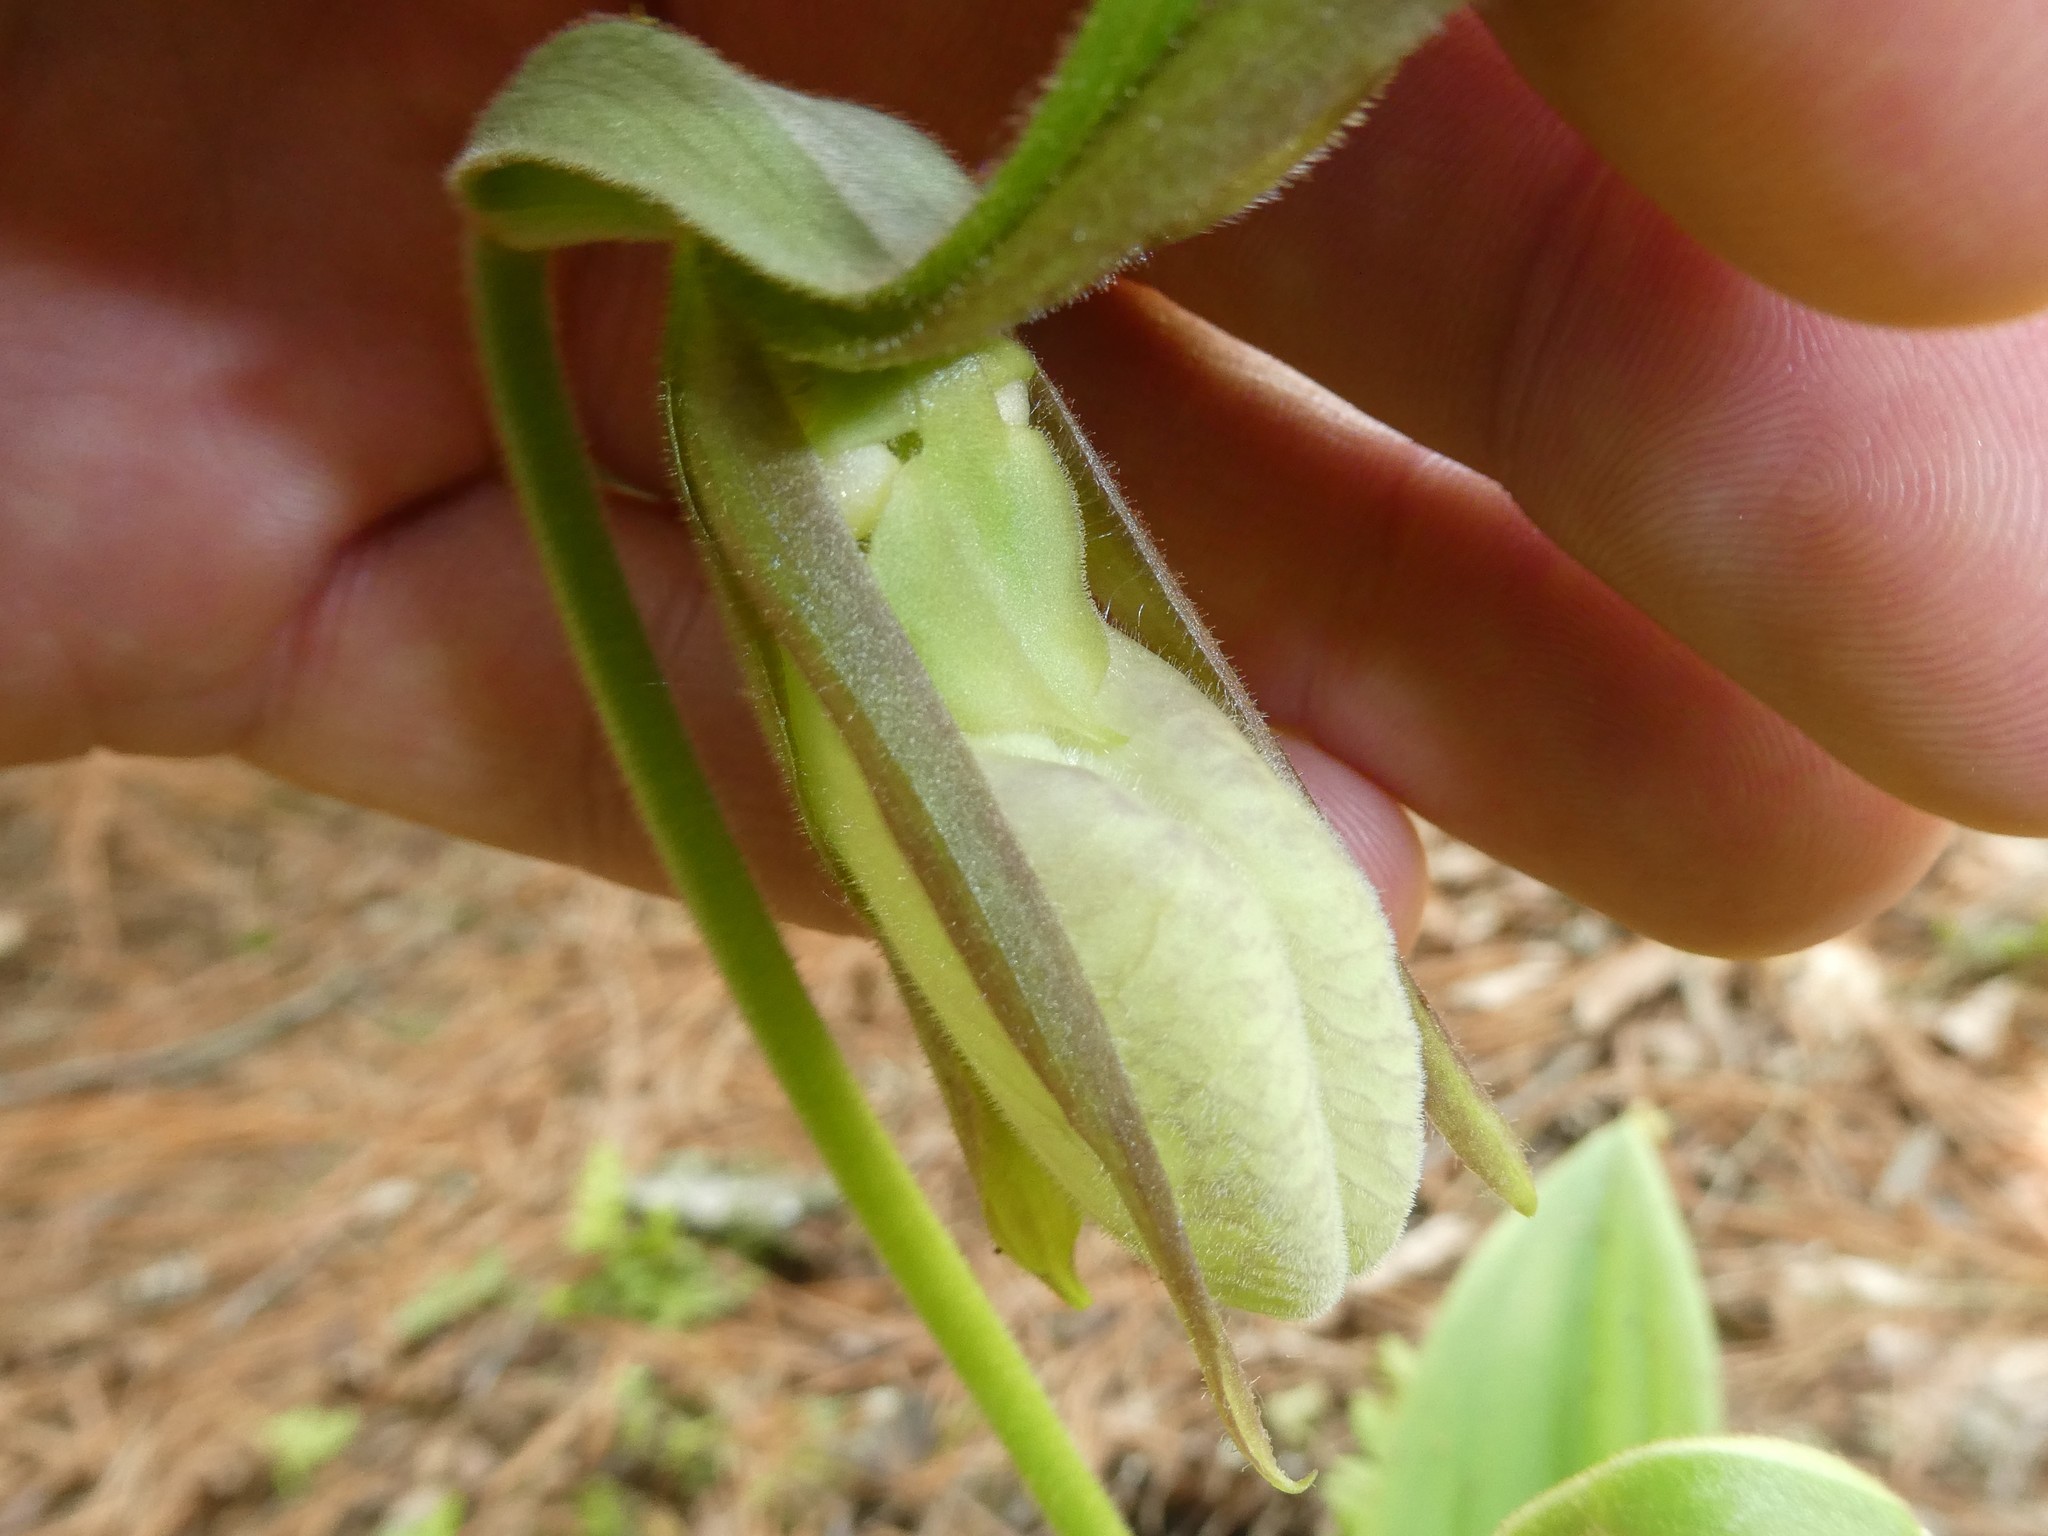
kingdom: Plantae
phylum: Tracheophyta
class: Liliopsida
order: Asparagales
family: Orchidaceae
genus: Cypripedium
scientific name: Cypripedium acaule
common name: Pink lady's-slipper
